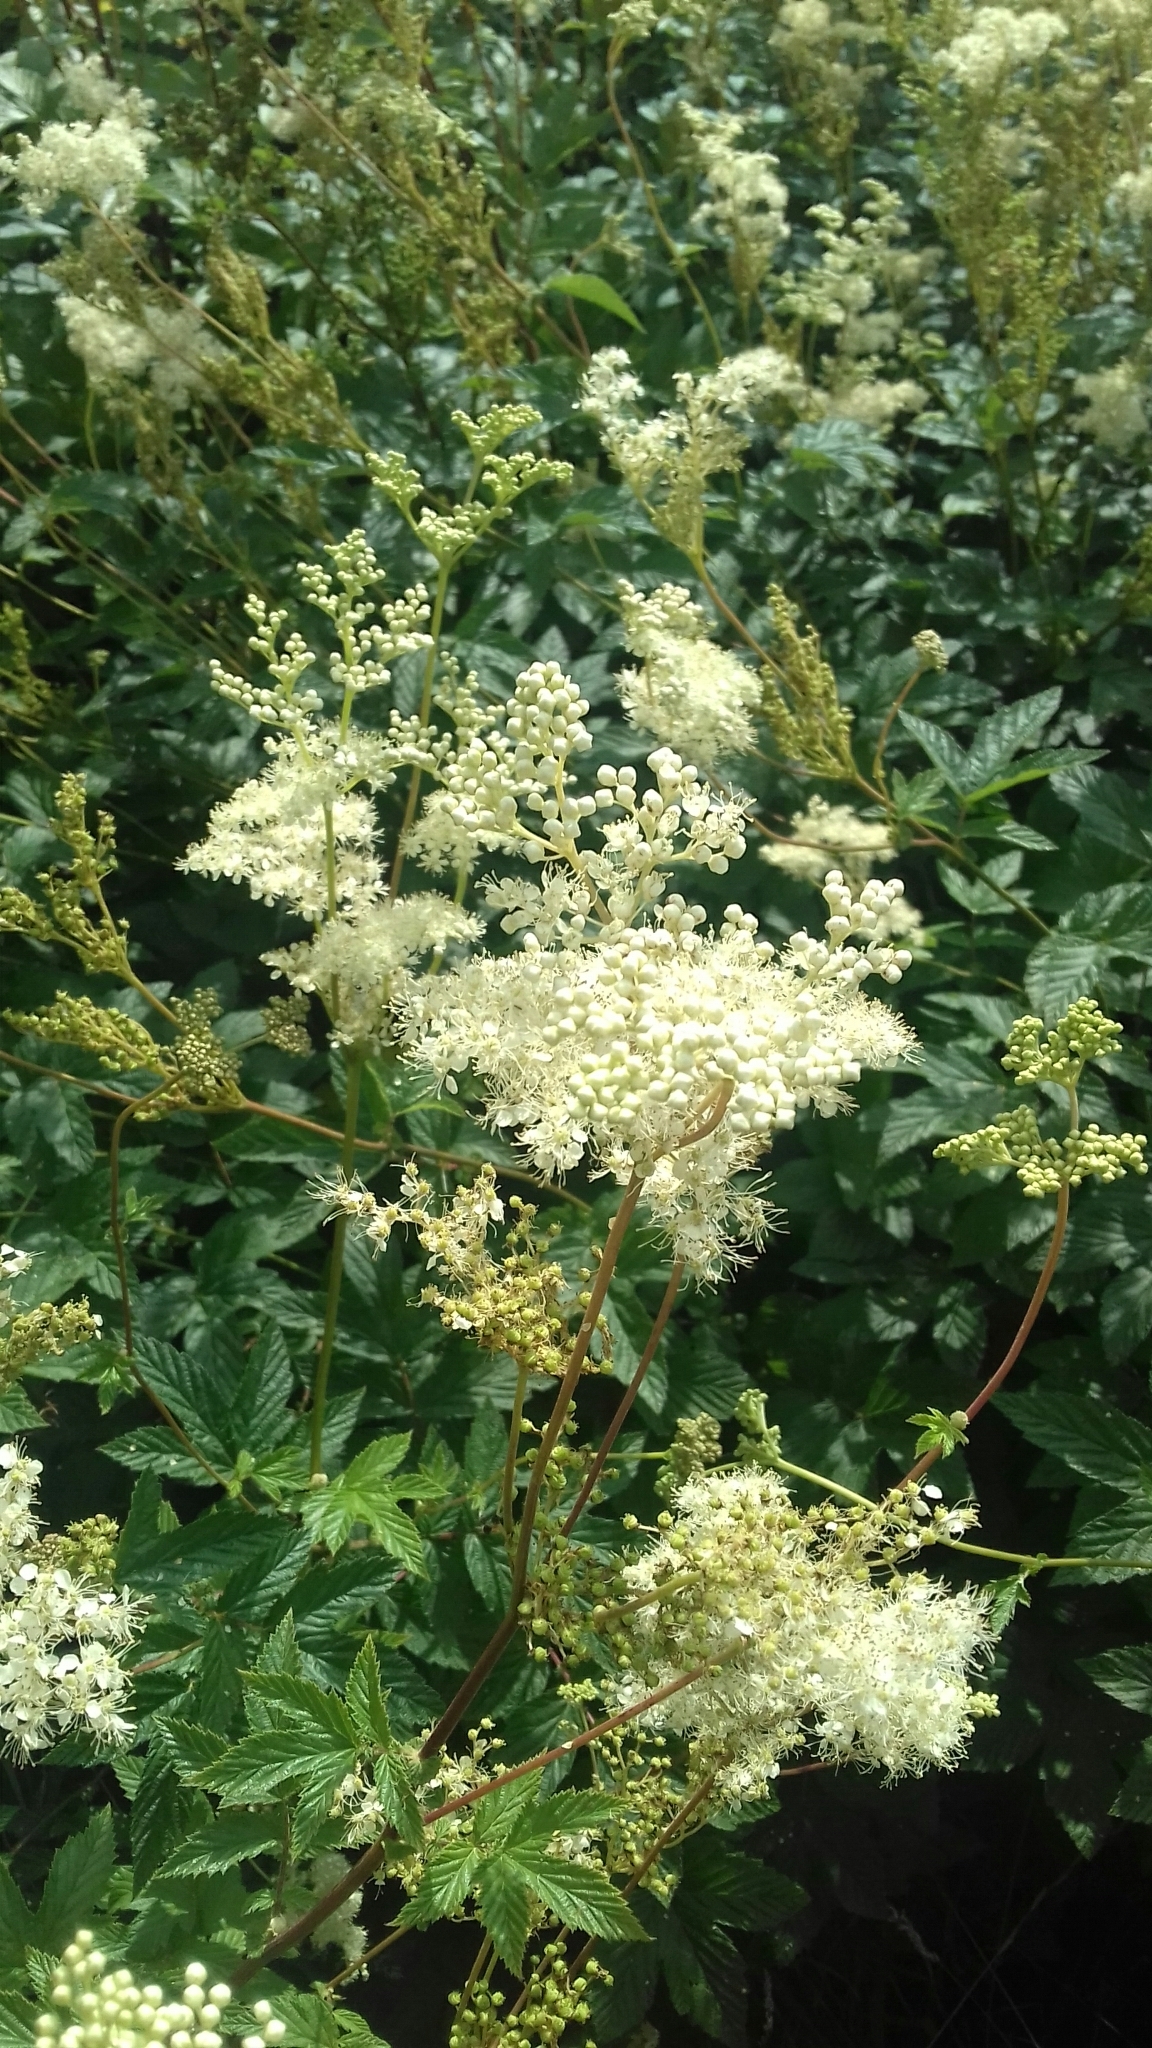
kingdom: Plantae
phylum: Tracheophyta
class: Magnoliopsida
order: Rosales
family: Rosaceae
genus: Filipendula
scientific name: Filipendula ulmaria
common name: Meadowsweet
